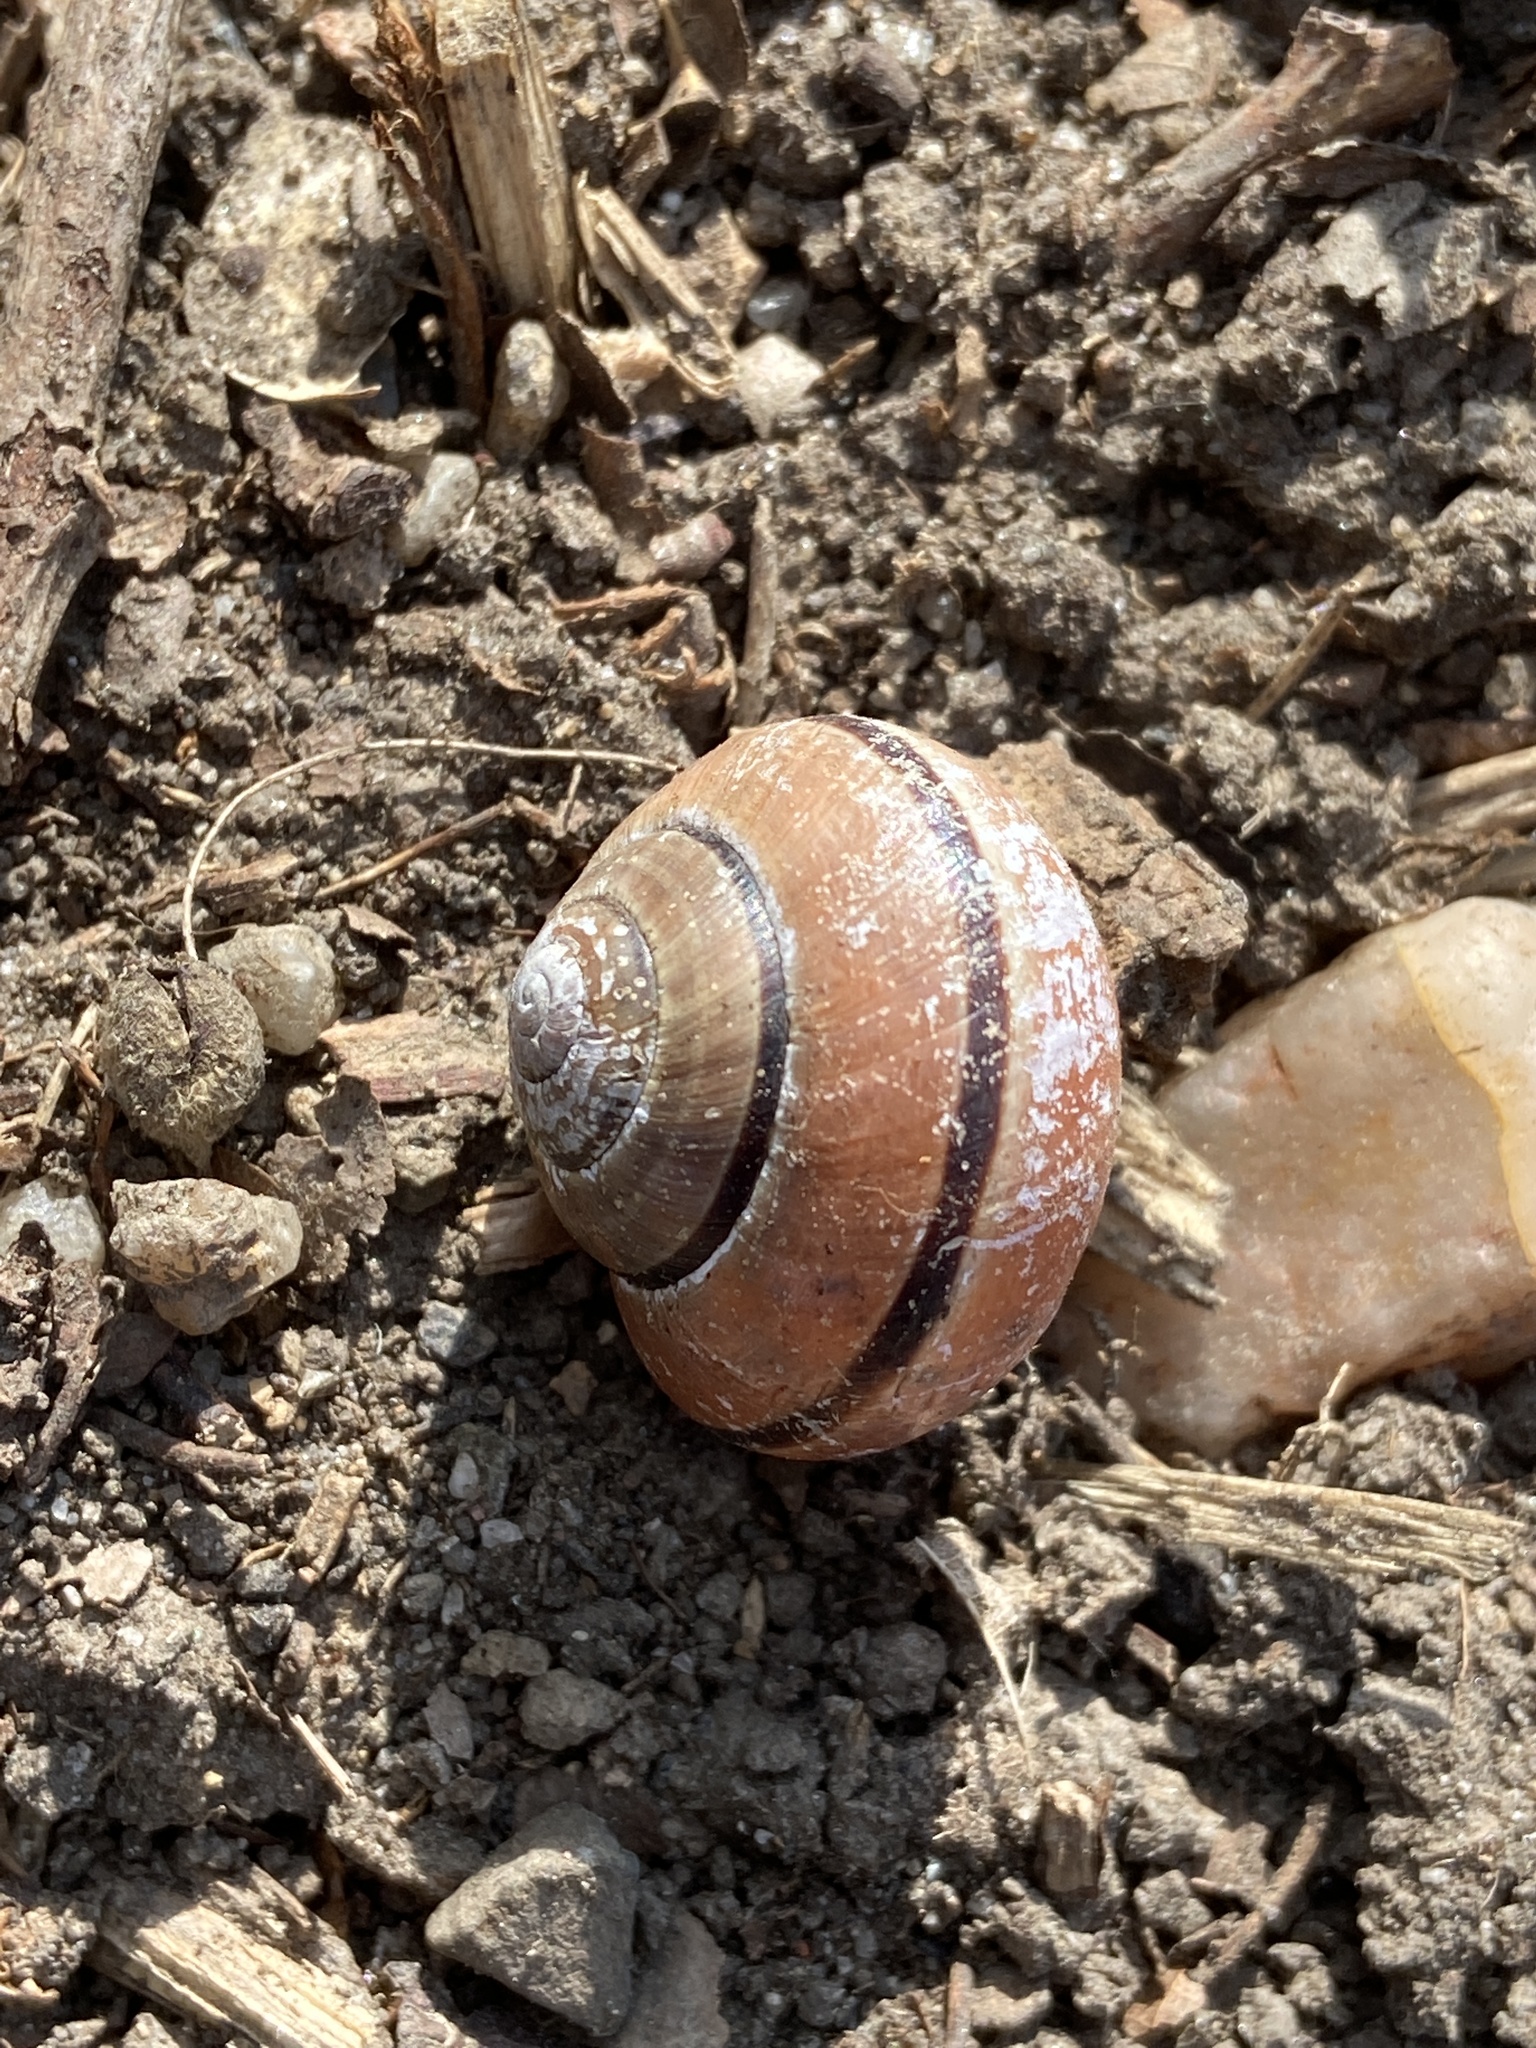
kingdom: Animalia
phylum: Mollusca
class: Gastropoda
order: Stylommatophora
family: Helicidae
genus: Cepaea
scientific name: Cepaea nemoralis
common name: Grovesnail
